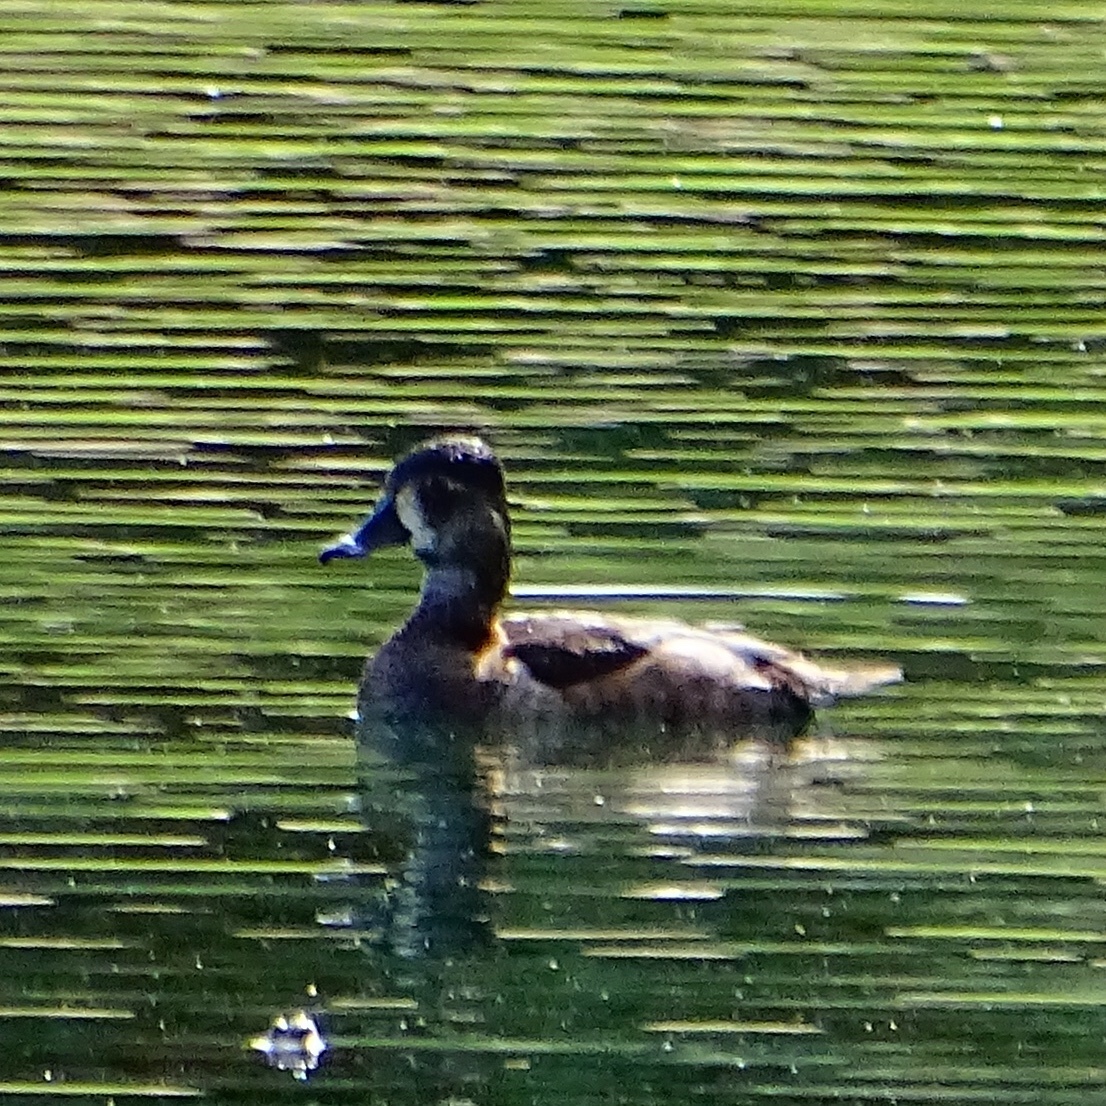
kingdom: Animalia
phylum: Chordata
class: Aves
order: Anseriformes
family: Anatidae
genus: Aythya
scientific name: Aythya collaris
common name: Ring-necked duck
